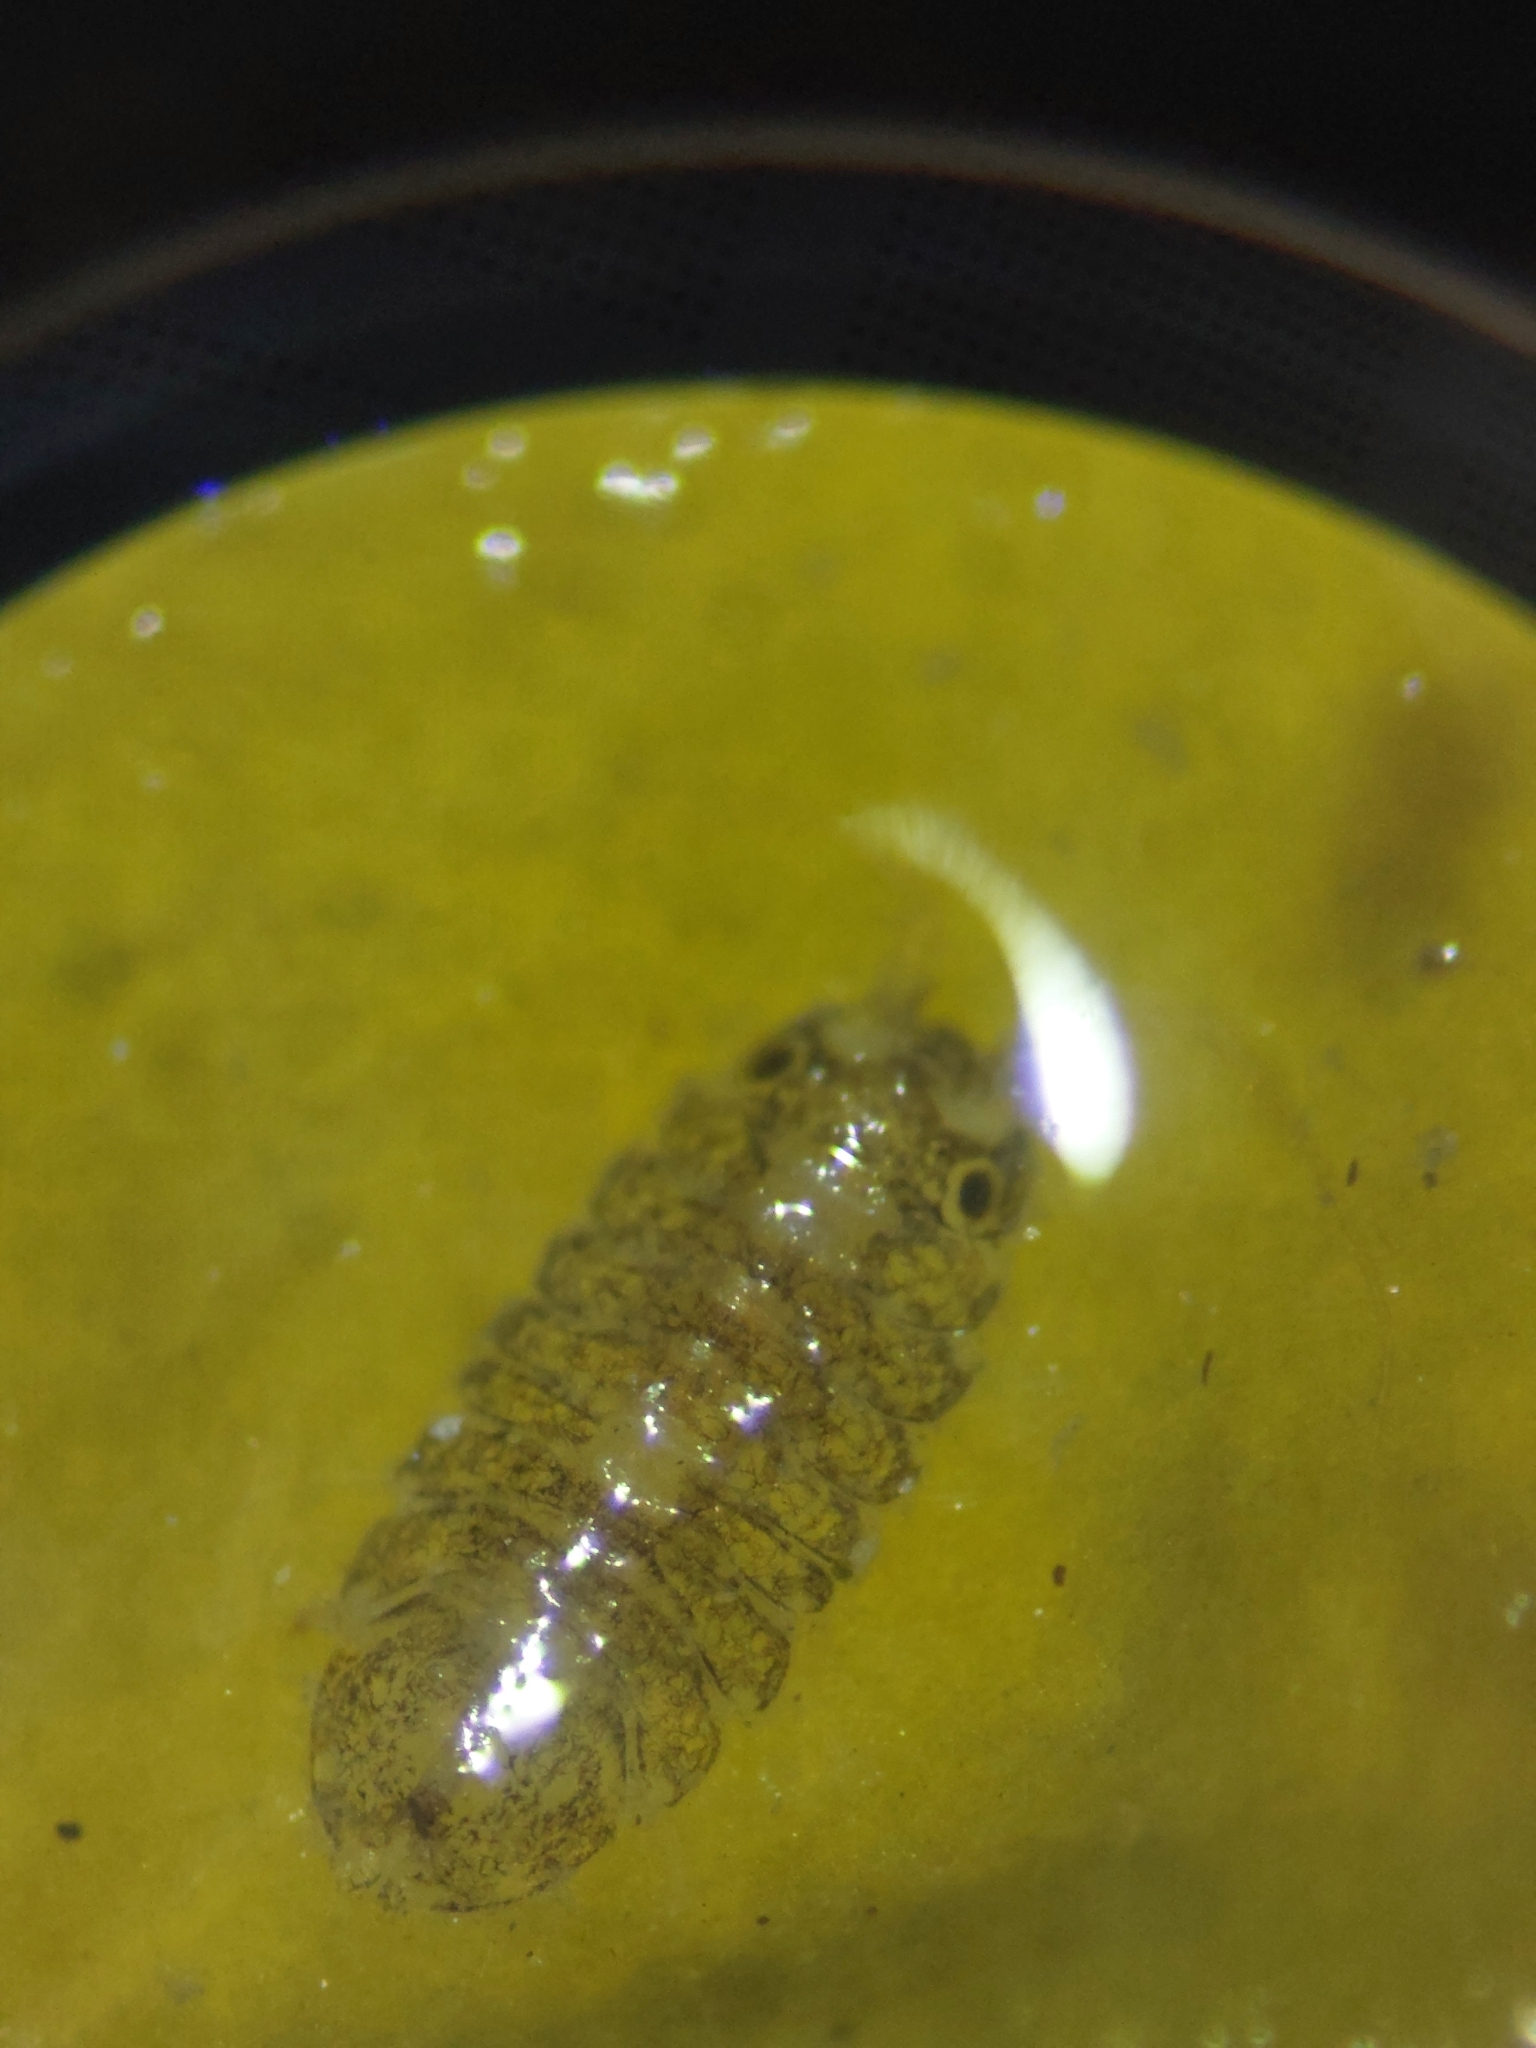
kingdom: Animalia
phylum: Arthropoda
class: Malacostraca
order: Isopoda
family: Janiridae
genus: Jaera
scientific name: Jaera
